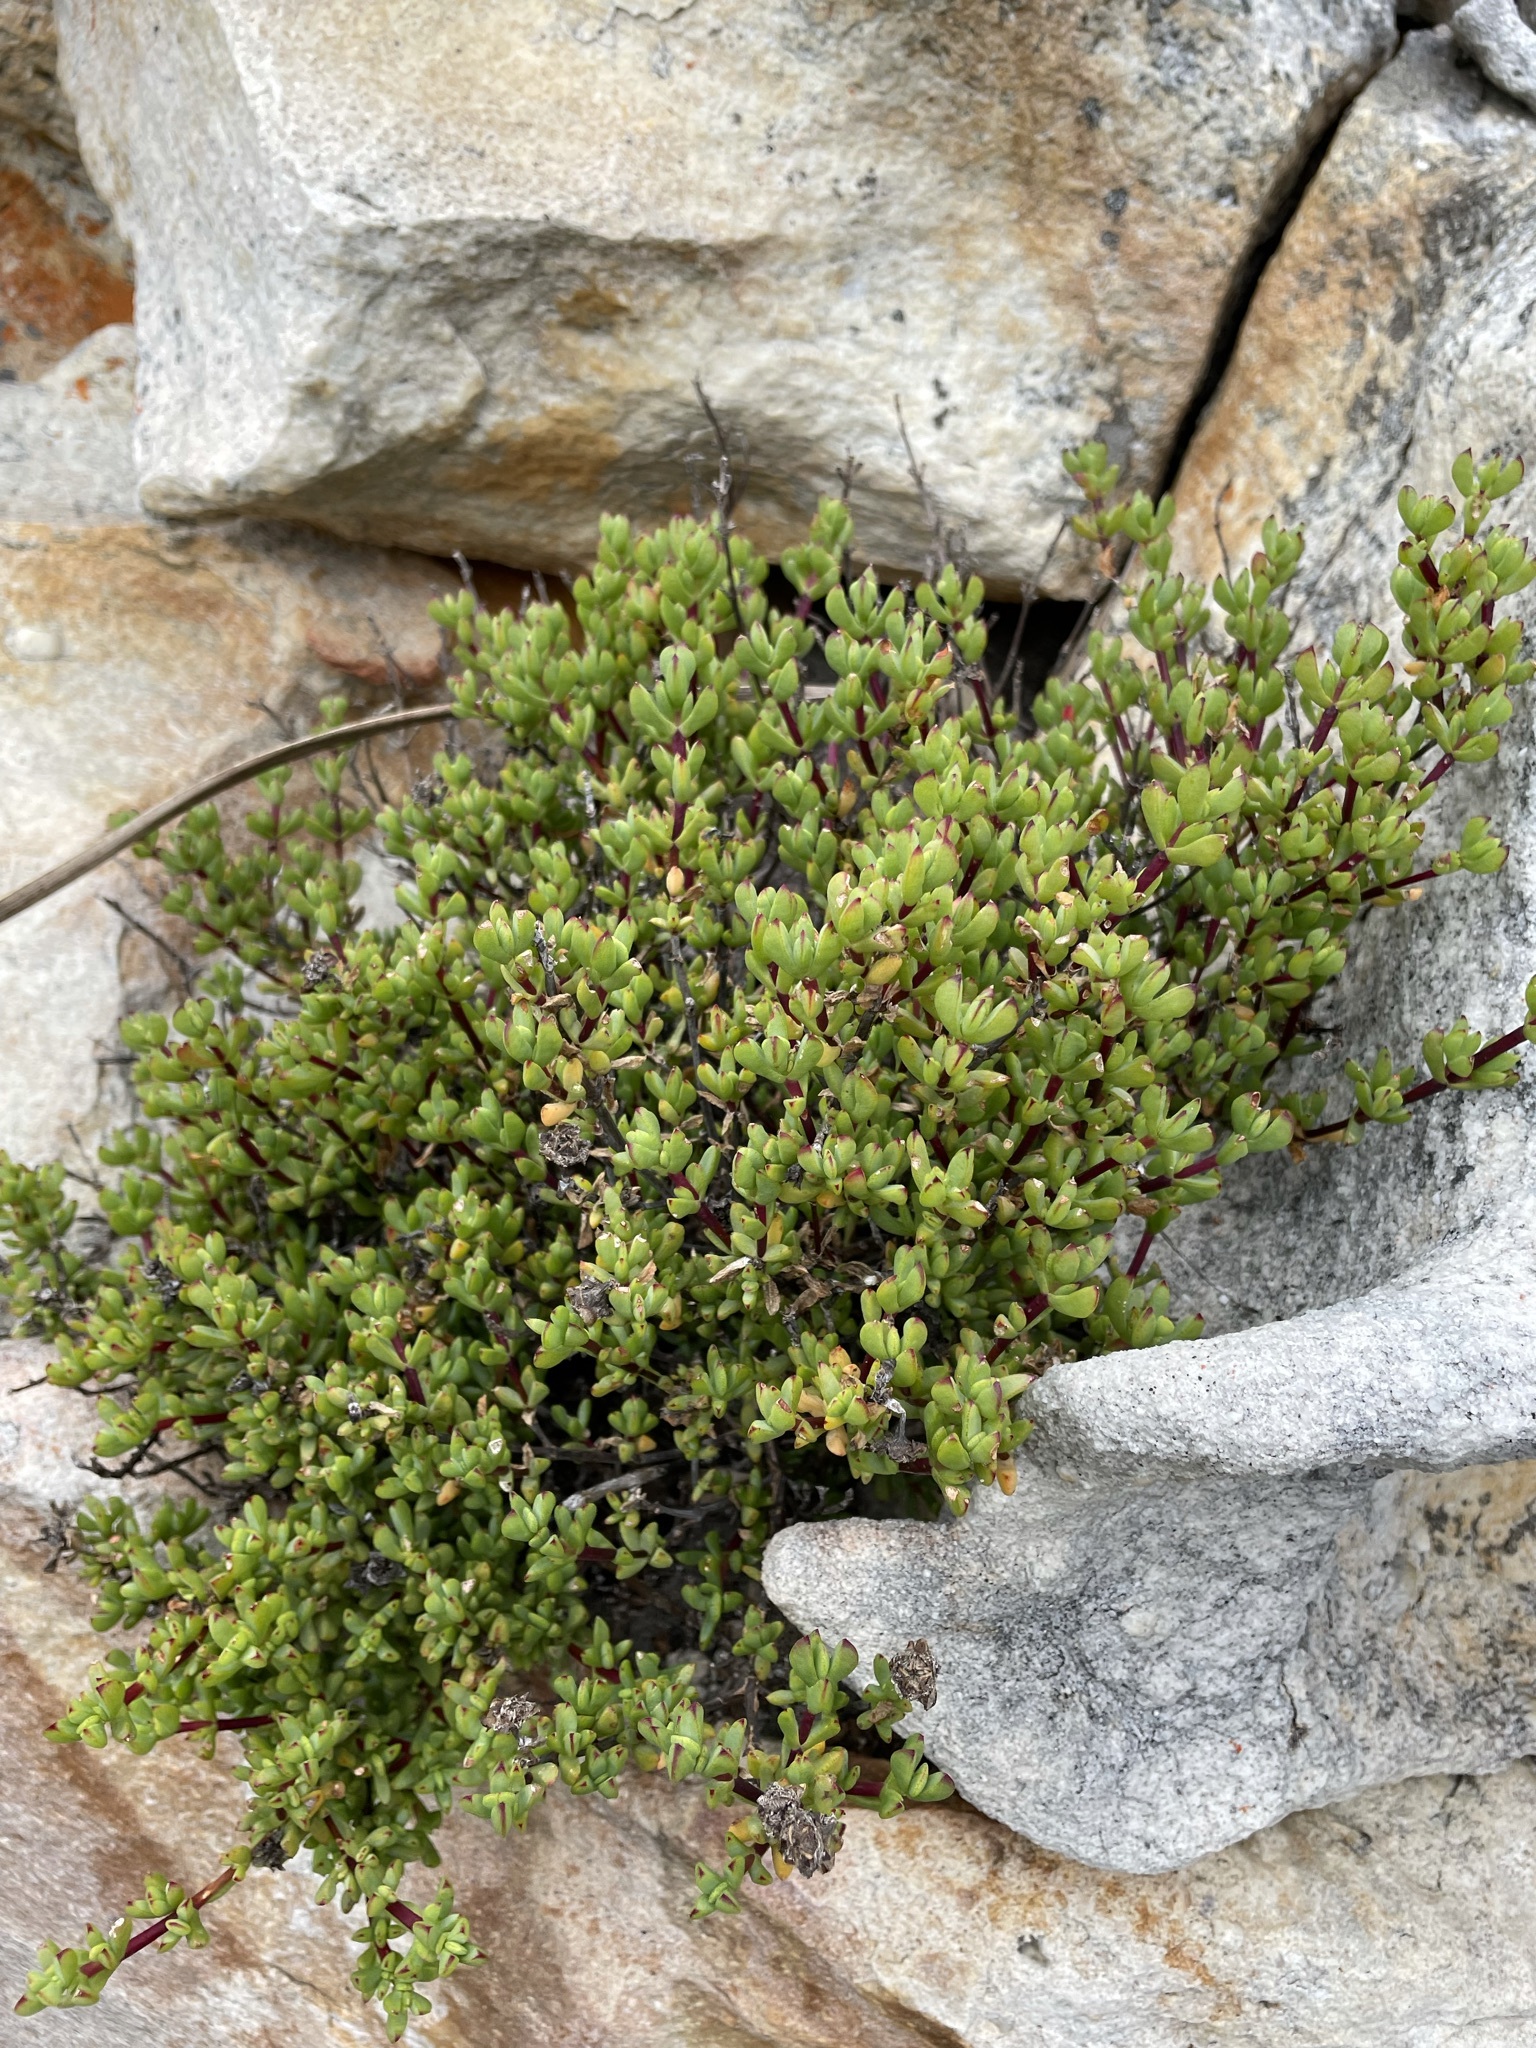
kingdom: Plantae
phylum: Tracheophyta
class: Magnoliopsida
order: Caryophyllales
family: Aizoaceae
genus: Oscularia
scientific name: Oscularia falciformis
